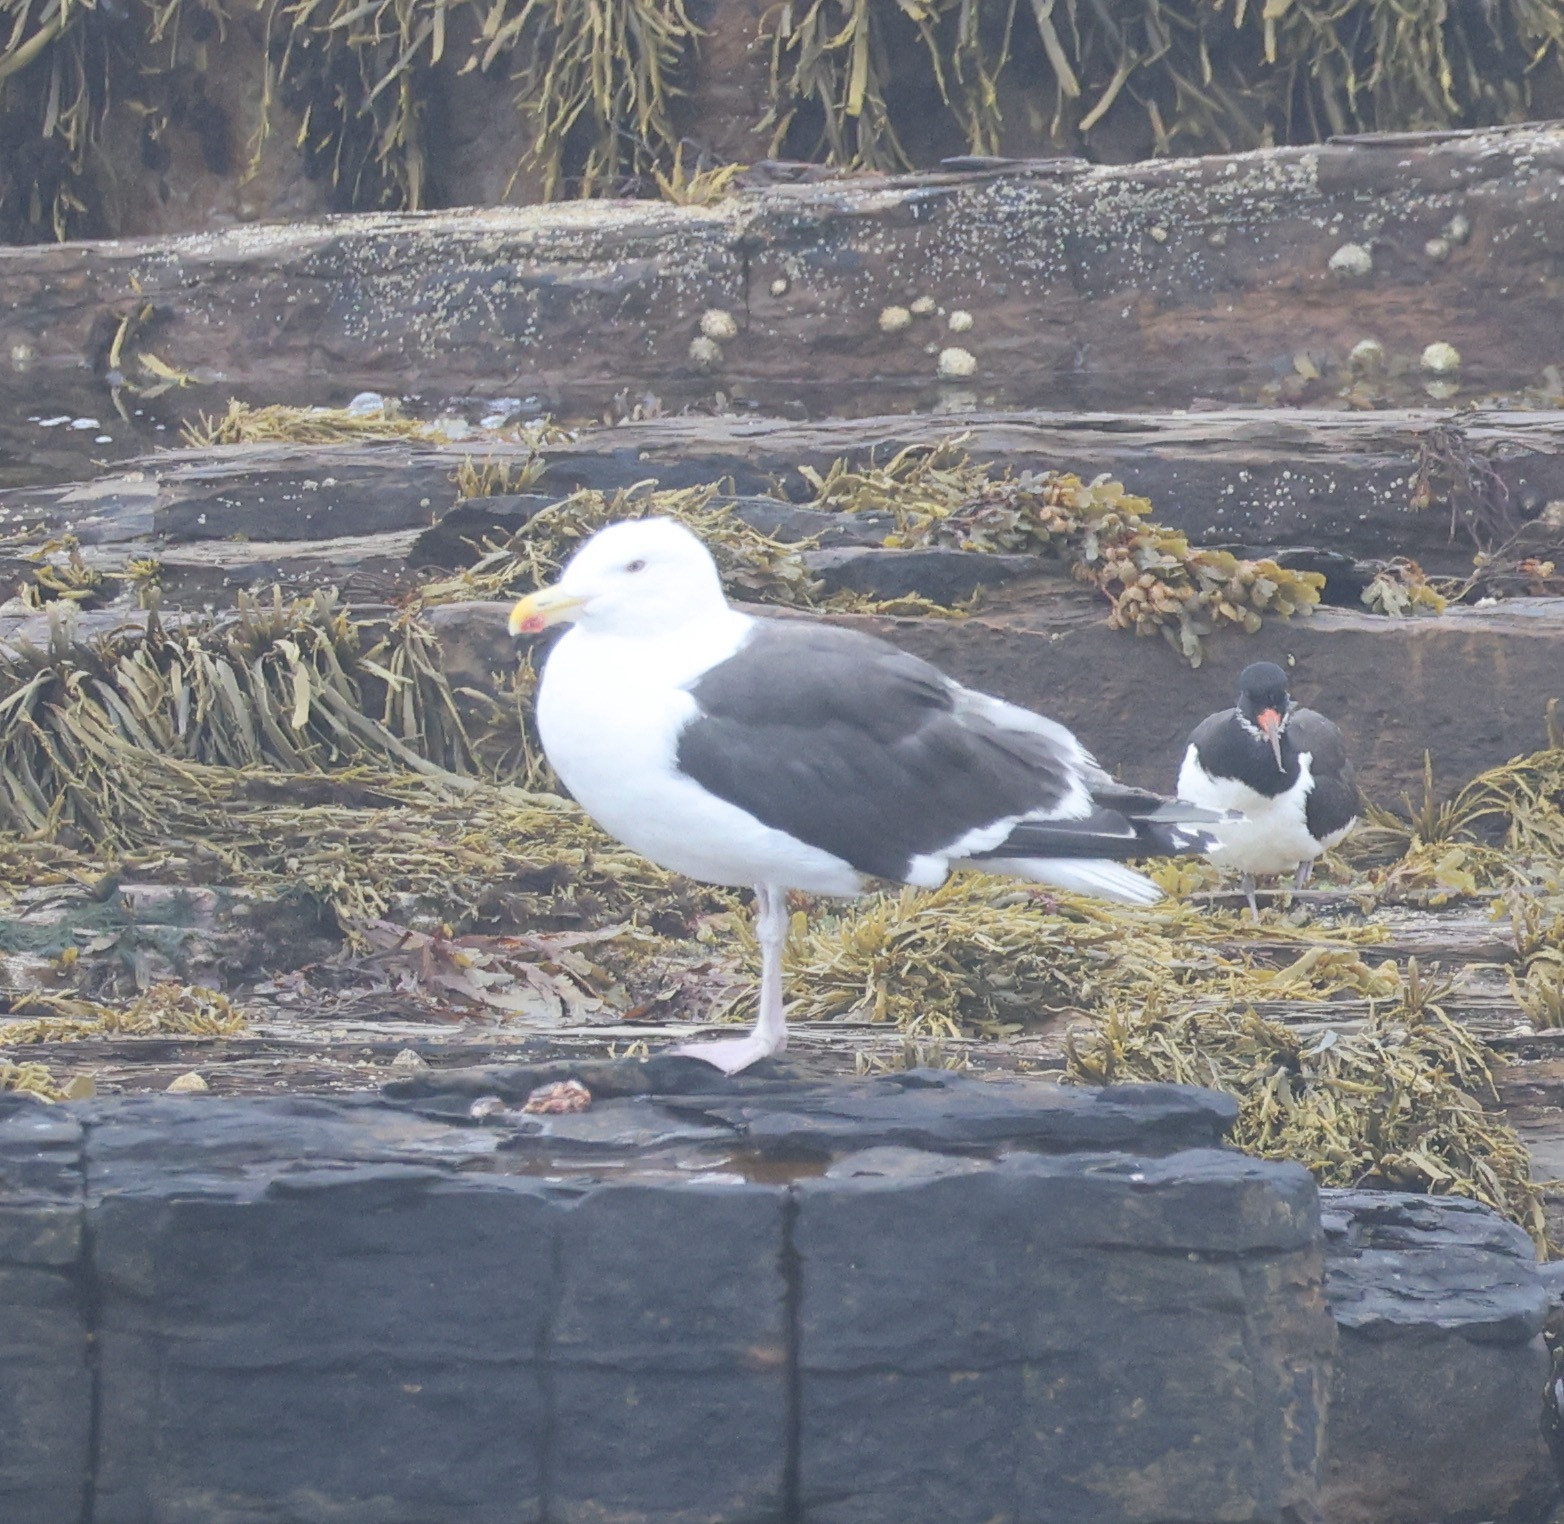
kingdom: Animalia
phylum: Chordata
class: Aves
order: Charadriiformes
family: Laridae
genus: Larus
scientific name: Larus marinus
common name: Great black-backed gull
